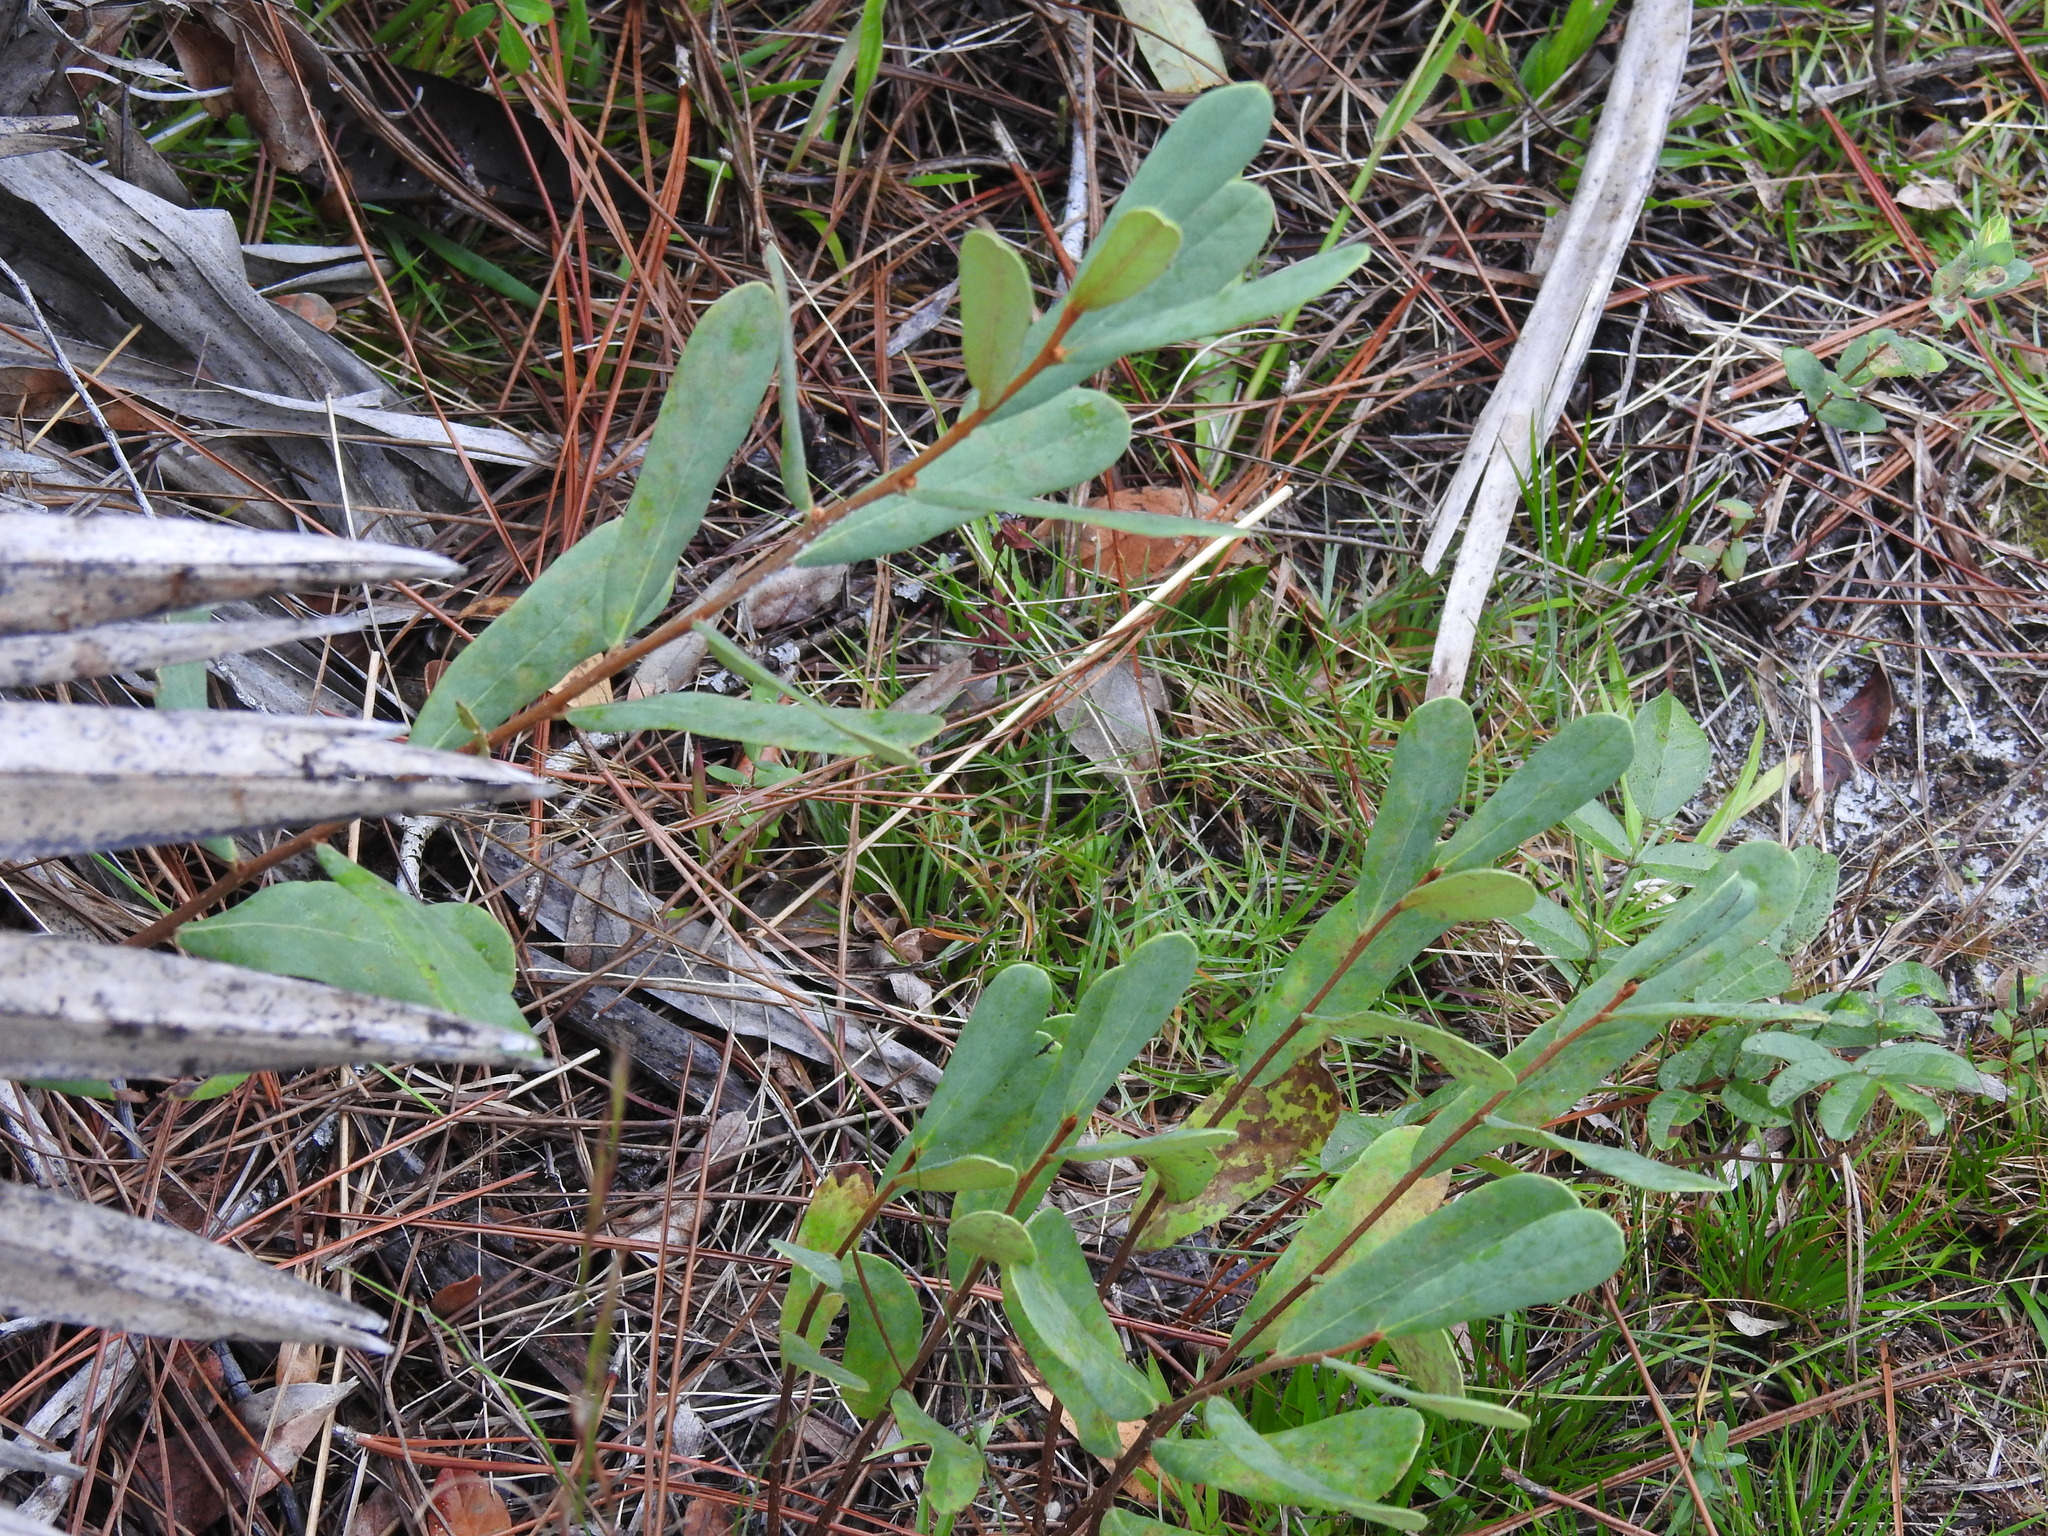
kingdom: Plantae
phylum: Tracheophyta
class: Magnoliopsida
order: Magnoliales
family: Annonaceae
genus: Asimina
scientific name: Asimina reticulata
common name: Flag pawpaw
